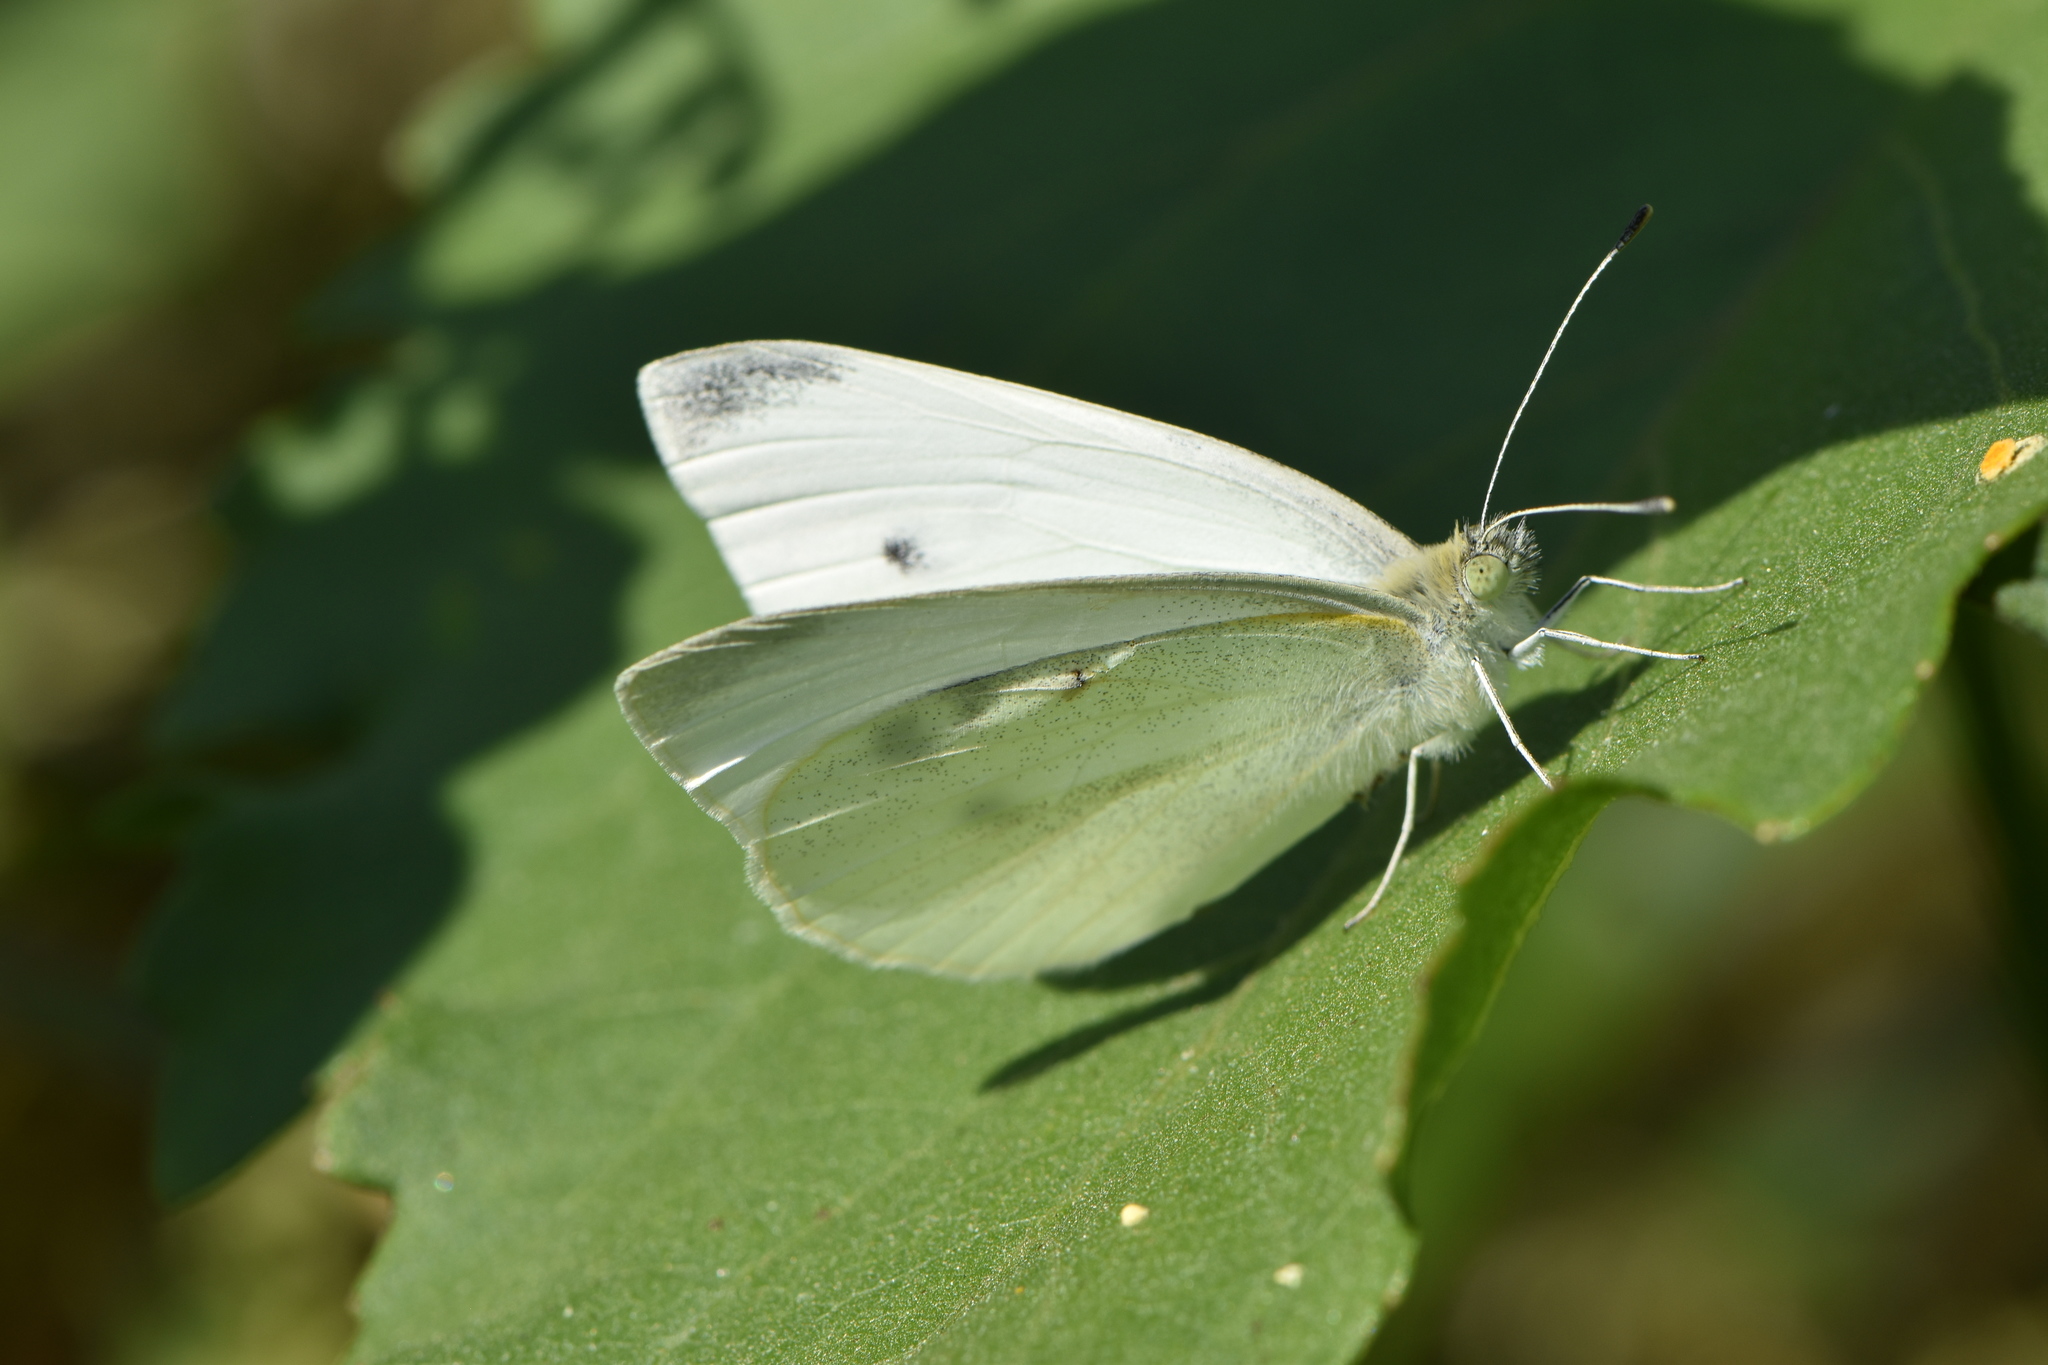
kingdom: Animalia
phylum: Arthropoda
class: Insecta
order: Lepidoptera
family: Pieridae
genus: Pieris
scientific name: Pieris rapae
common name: Small white
